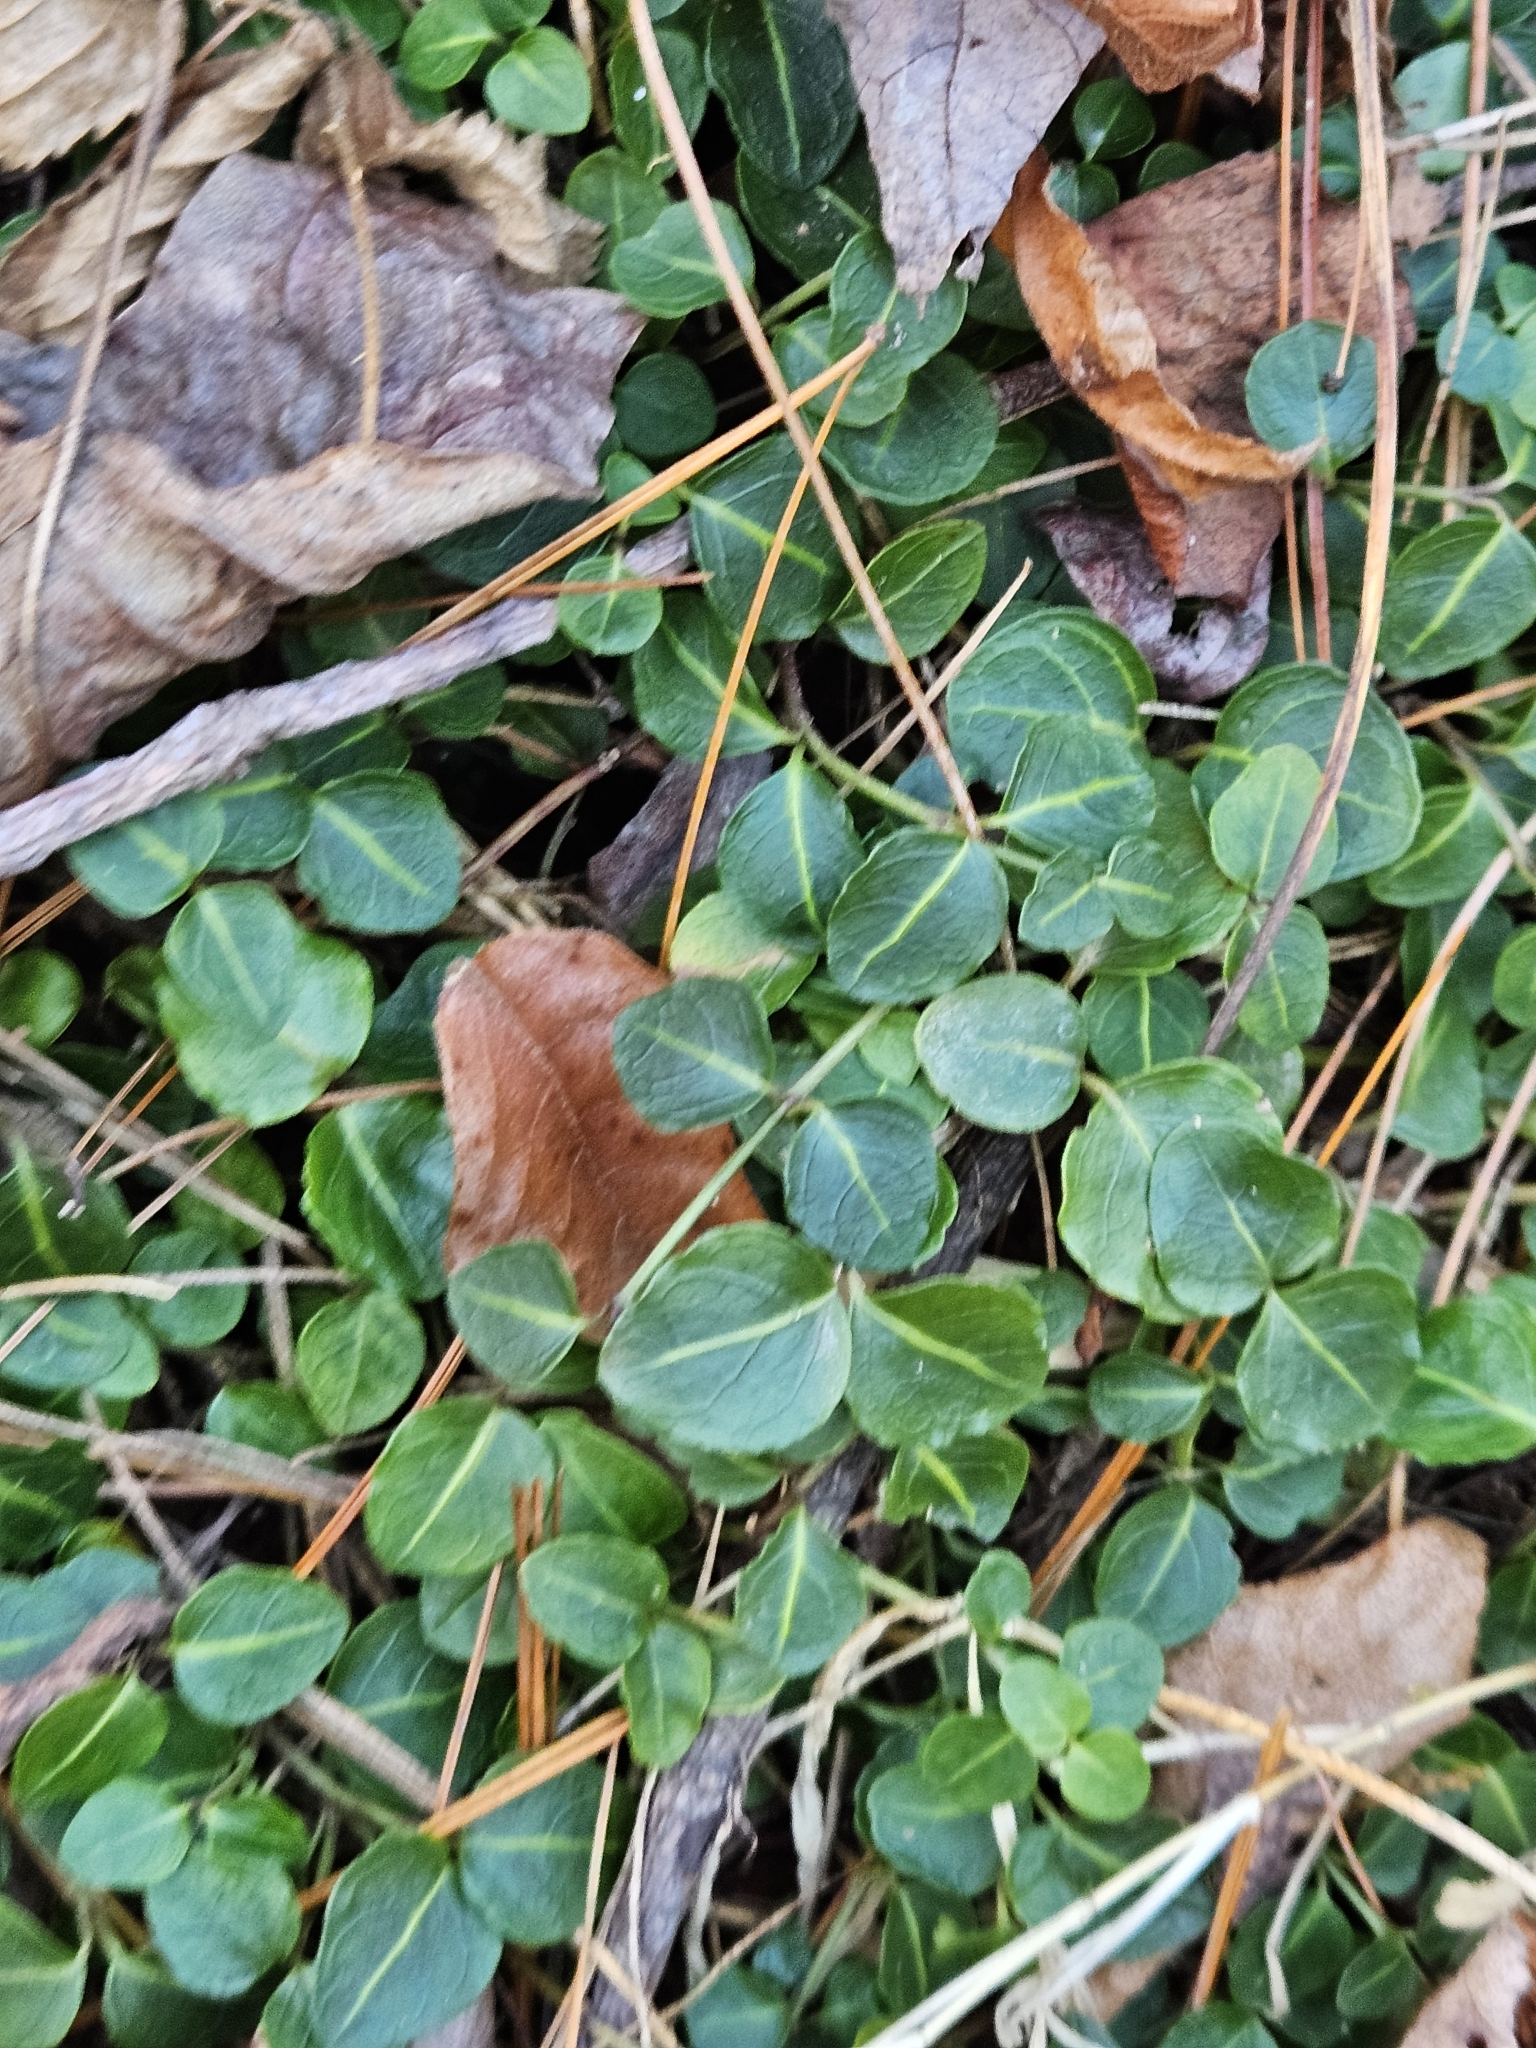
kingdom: Plantae
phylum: Tracheophyta
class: Magnoliopsida
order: Gentianales
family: Rubiaceae
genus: Mitchella
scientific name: Mitchella repens
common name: Partridge-berry
